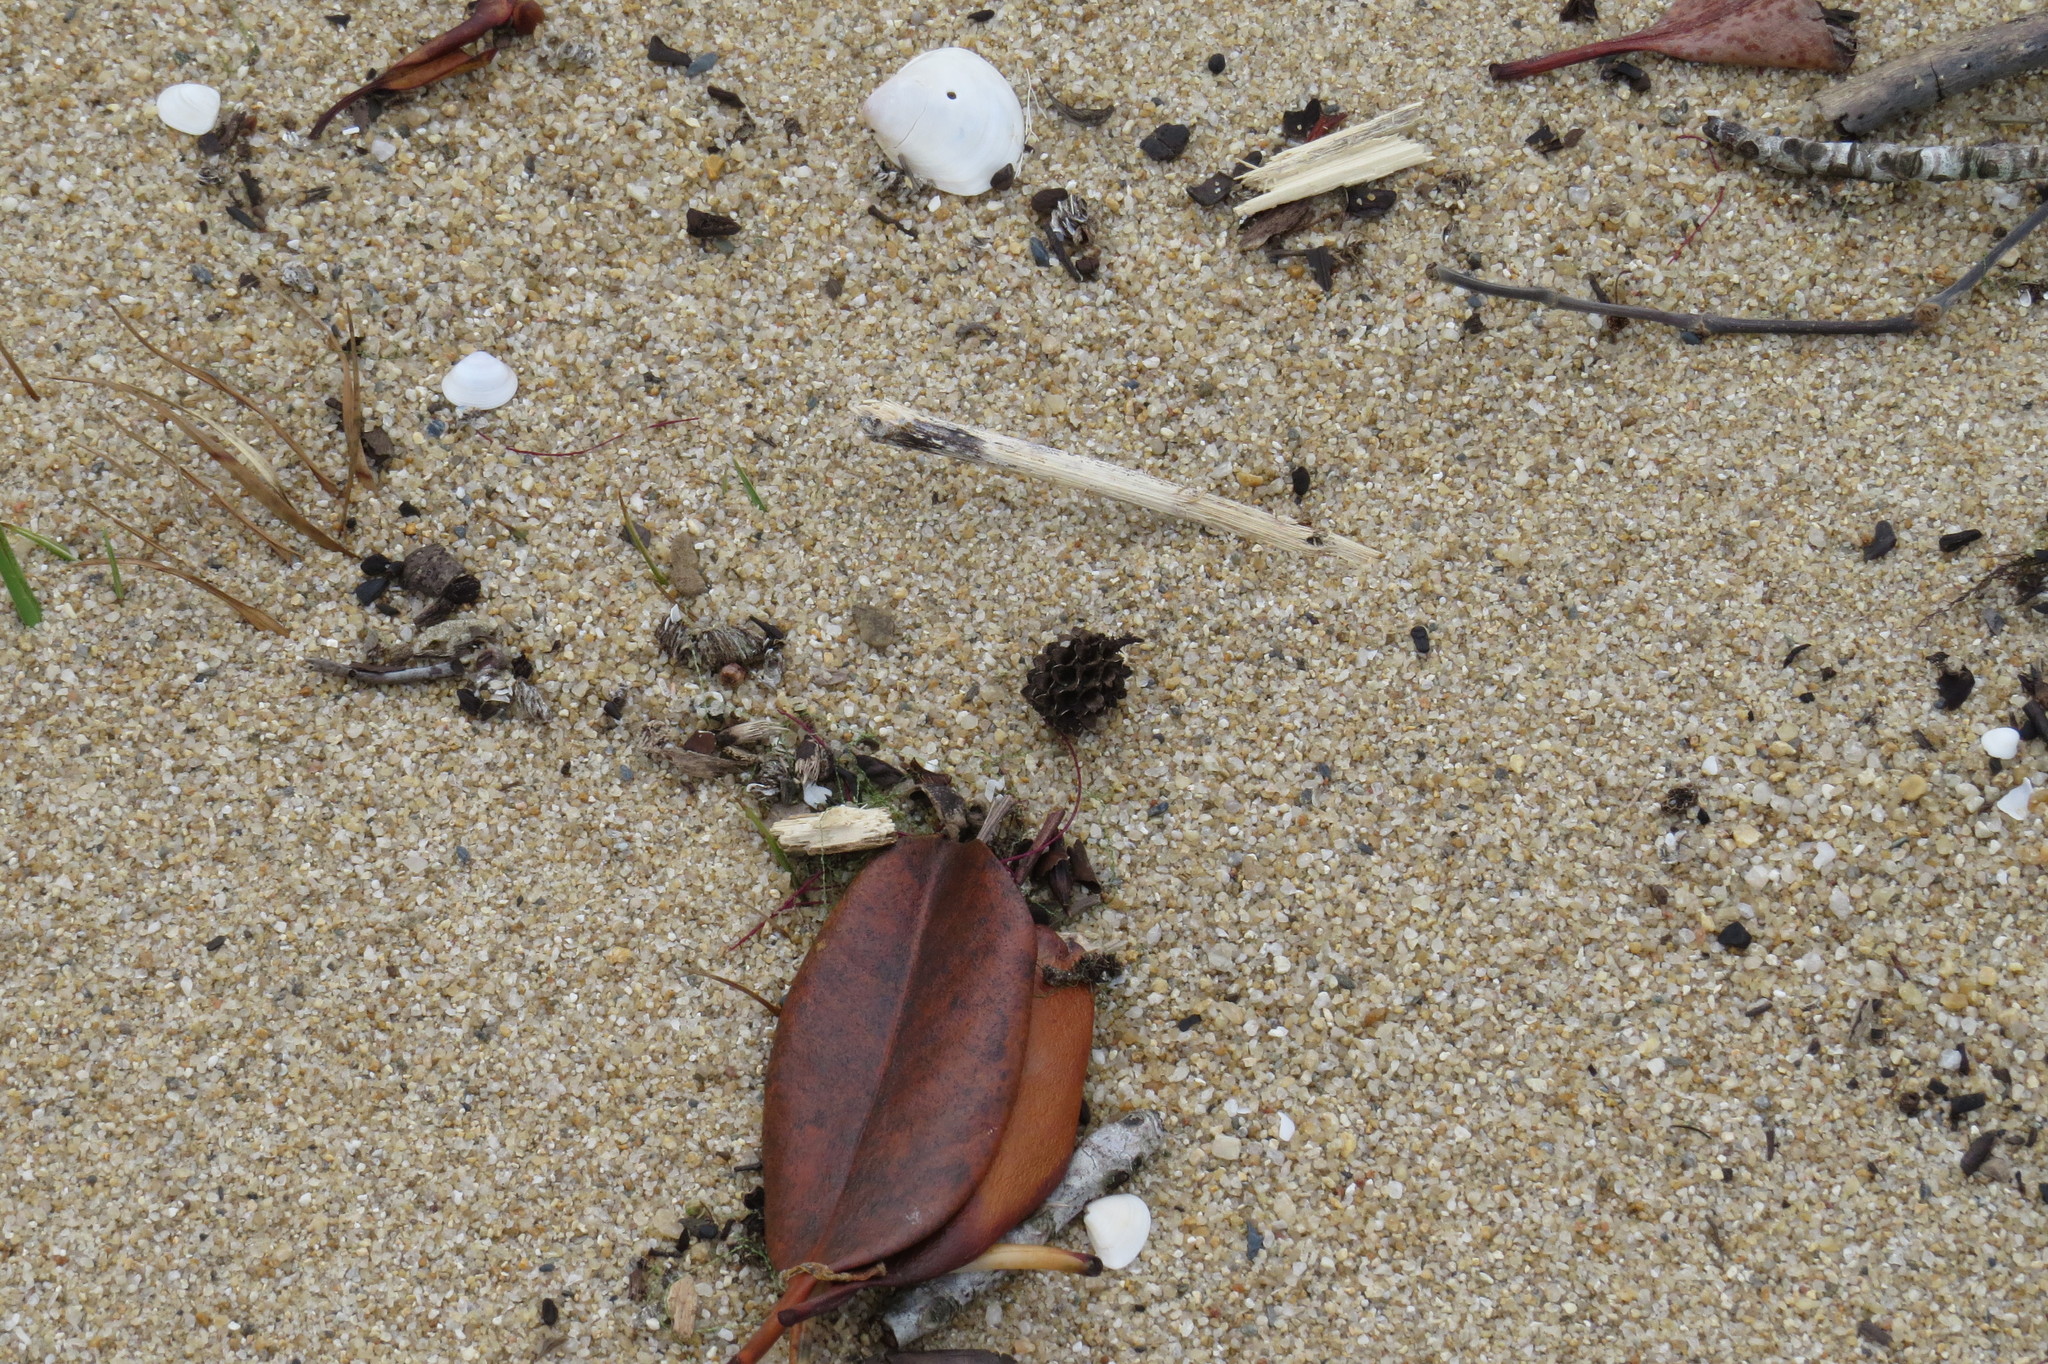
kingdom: Plantae
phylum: Tracheophyta
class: Magnoliopsida
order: Fagales
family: Casuarinaceae
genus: Casuarina
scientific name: Casuarina equisetifolia
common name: Beach sheoak
